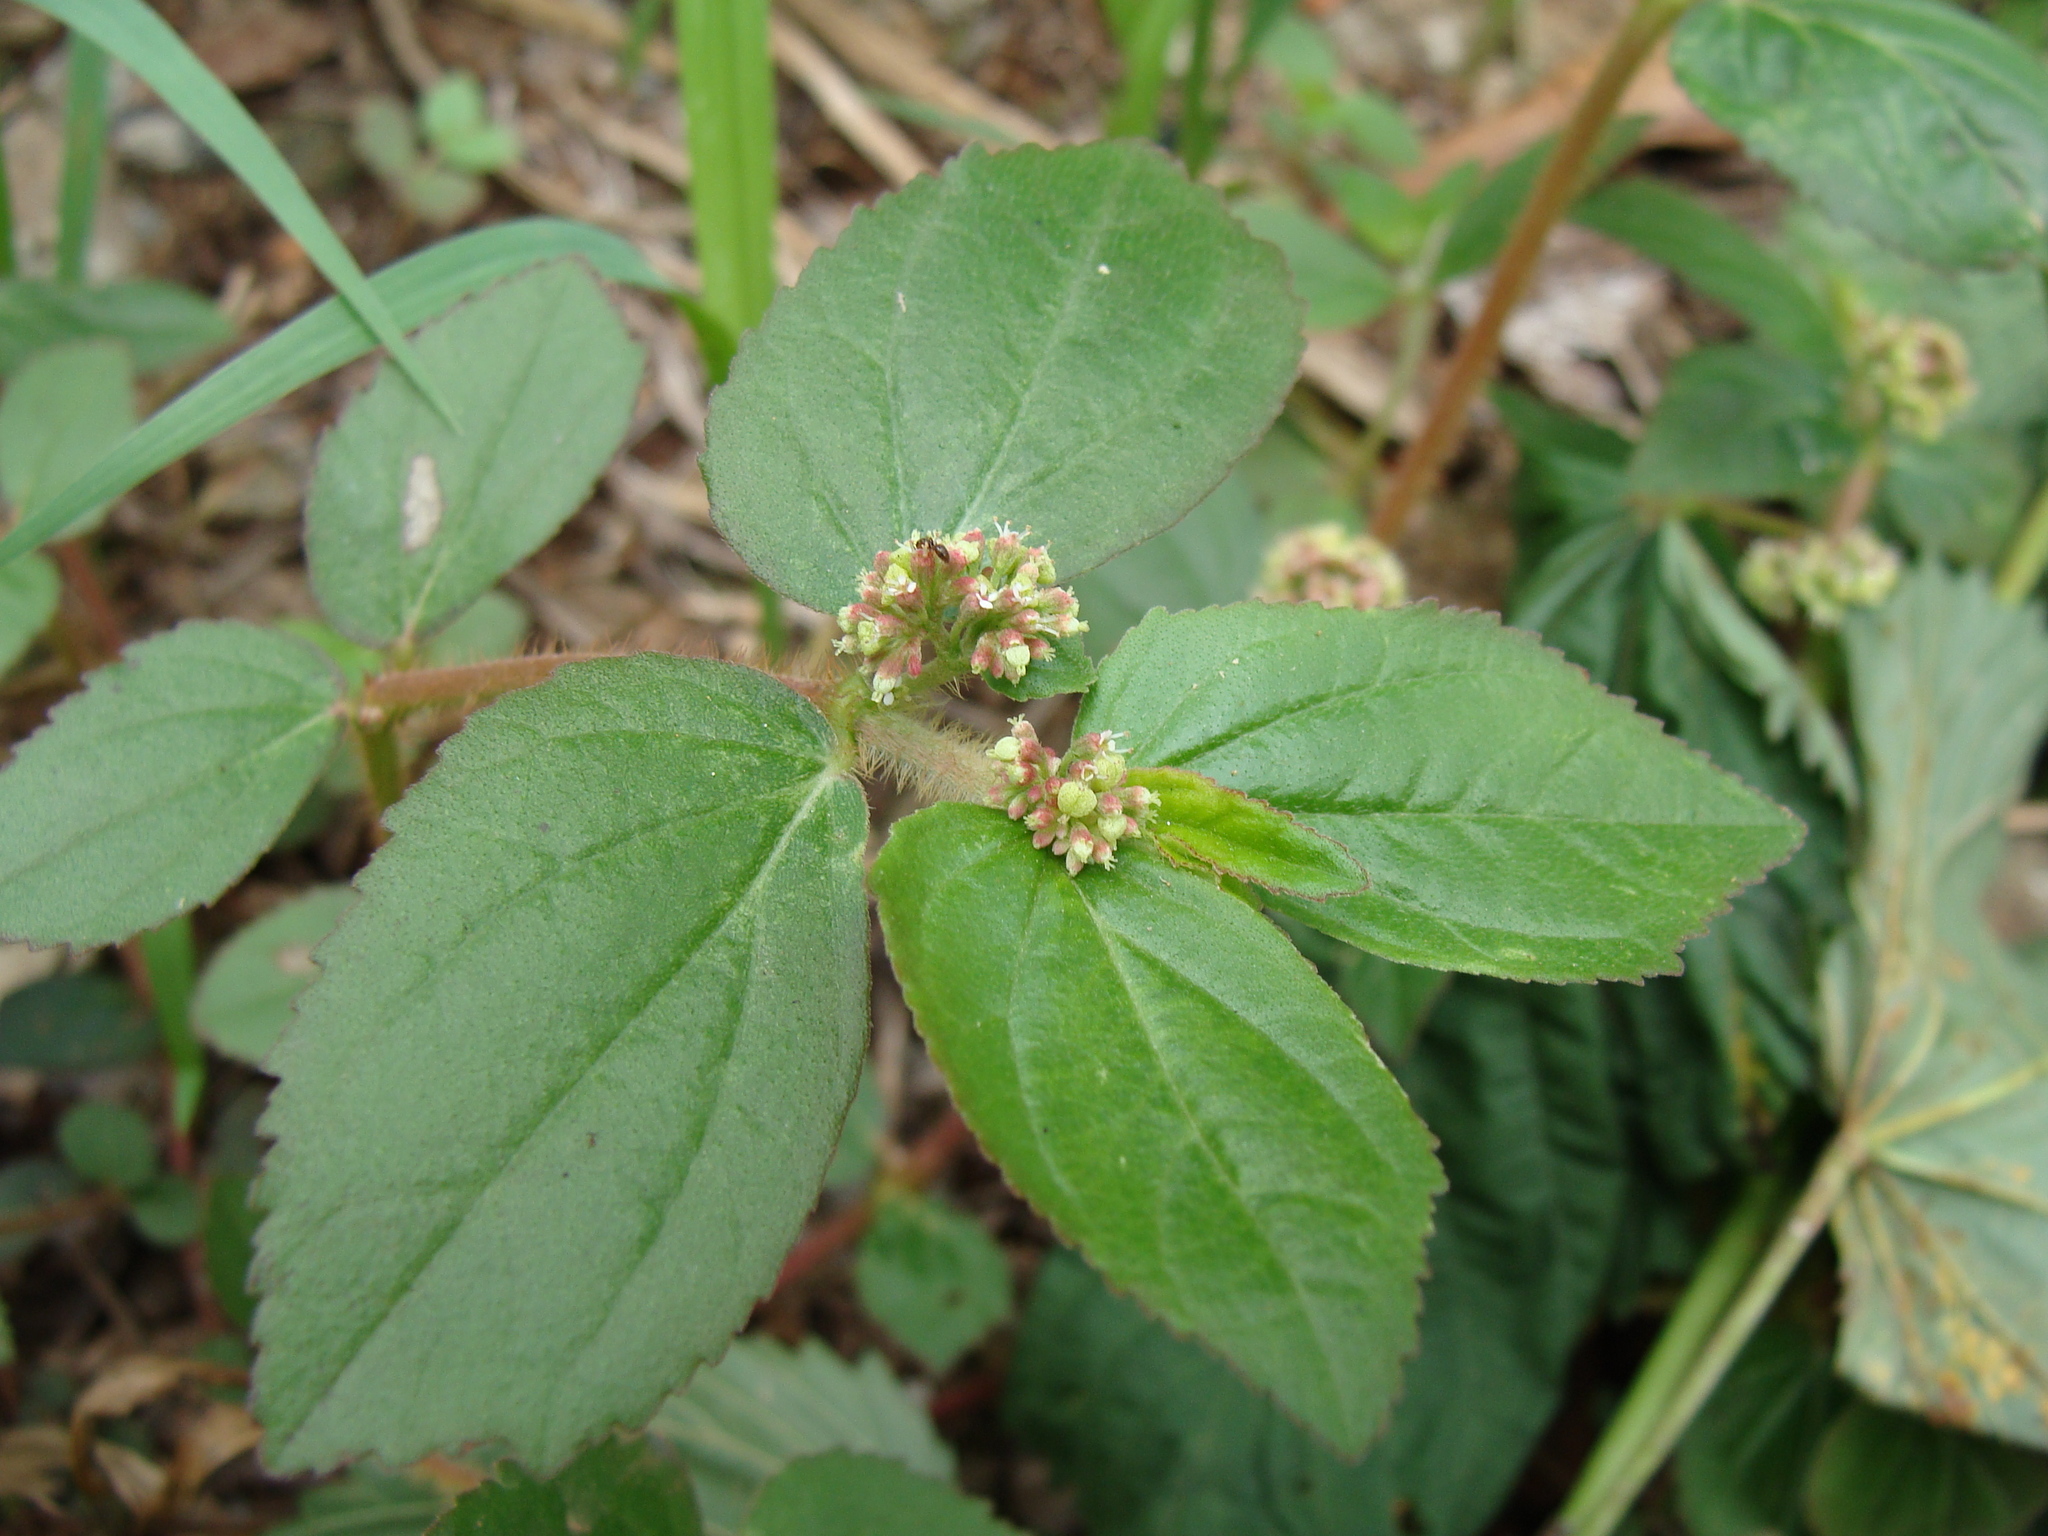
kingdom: Plantae
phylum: Tracheophyta
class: Magnoliopsida
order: Malpighiales
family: Euphorbiaceae
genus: Euphorbia
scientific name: Euphorbia hirta
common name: Pillpod sandmat
